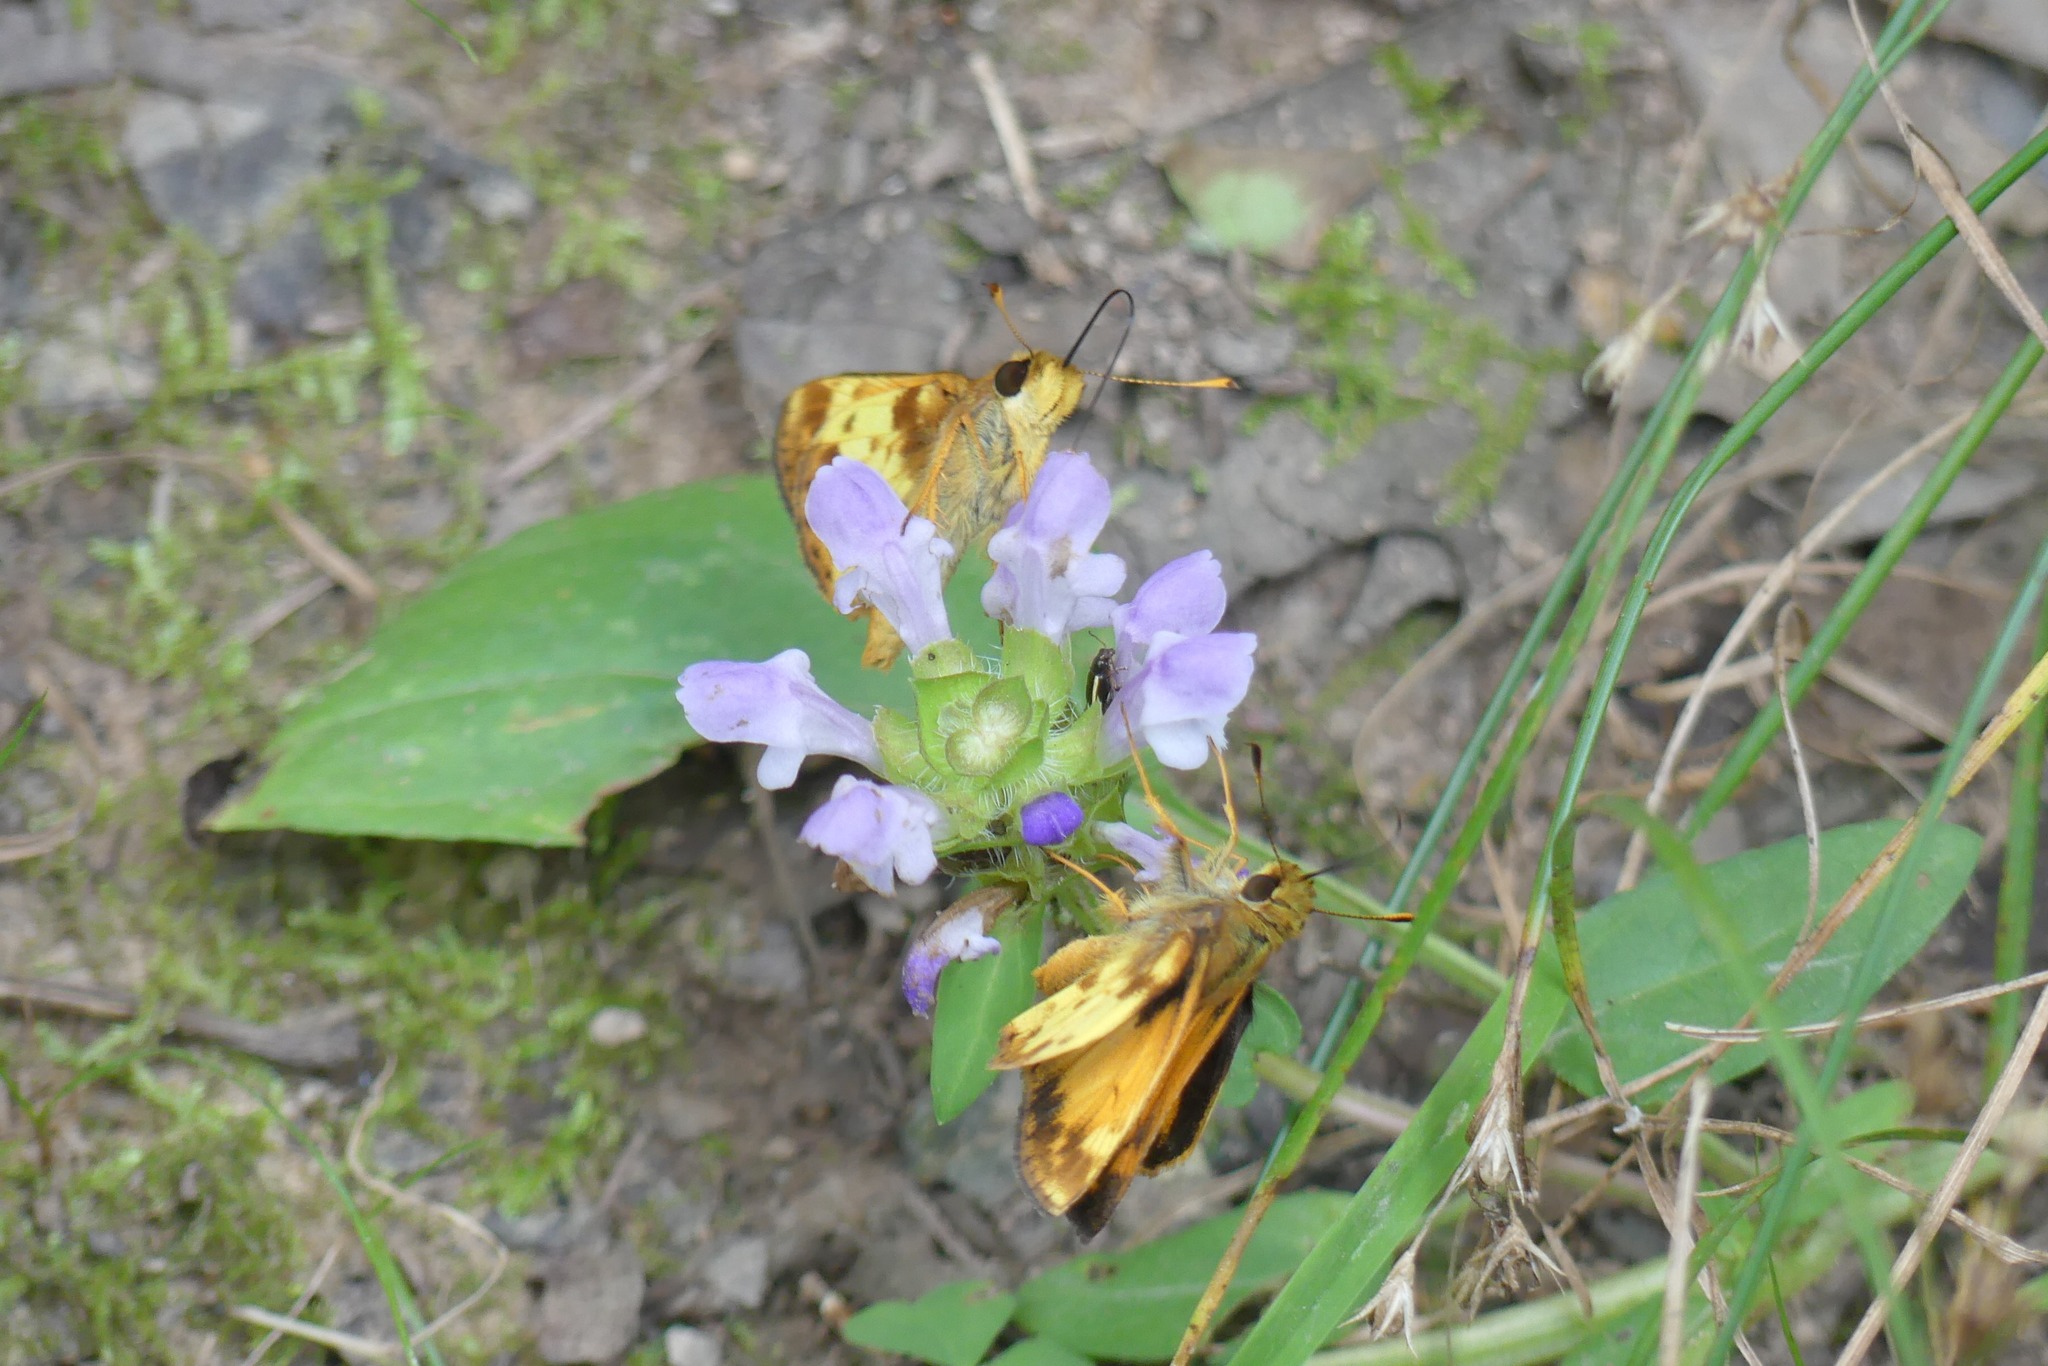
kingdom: Animalia
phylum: Arthropoda
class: Insecta
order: Lepidoptera
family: Hesperiidae
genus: Lon
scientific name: Lon zabulon
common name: Zabulon skipper
